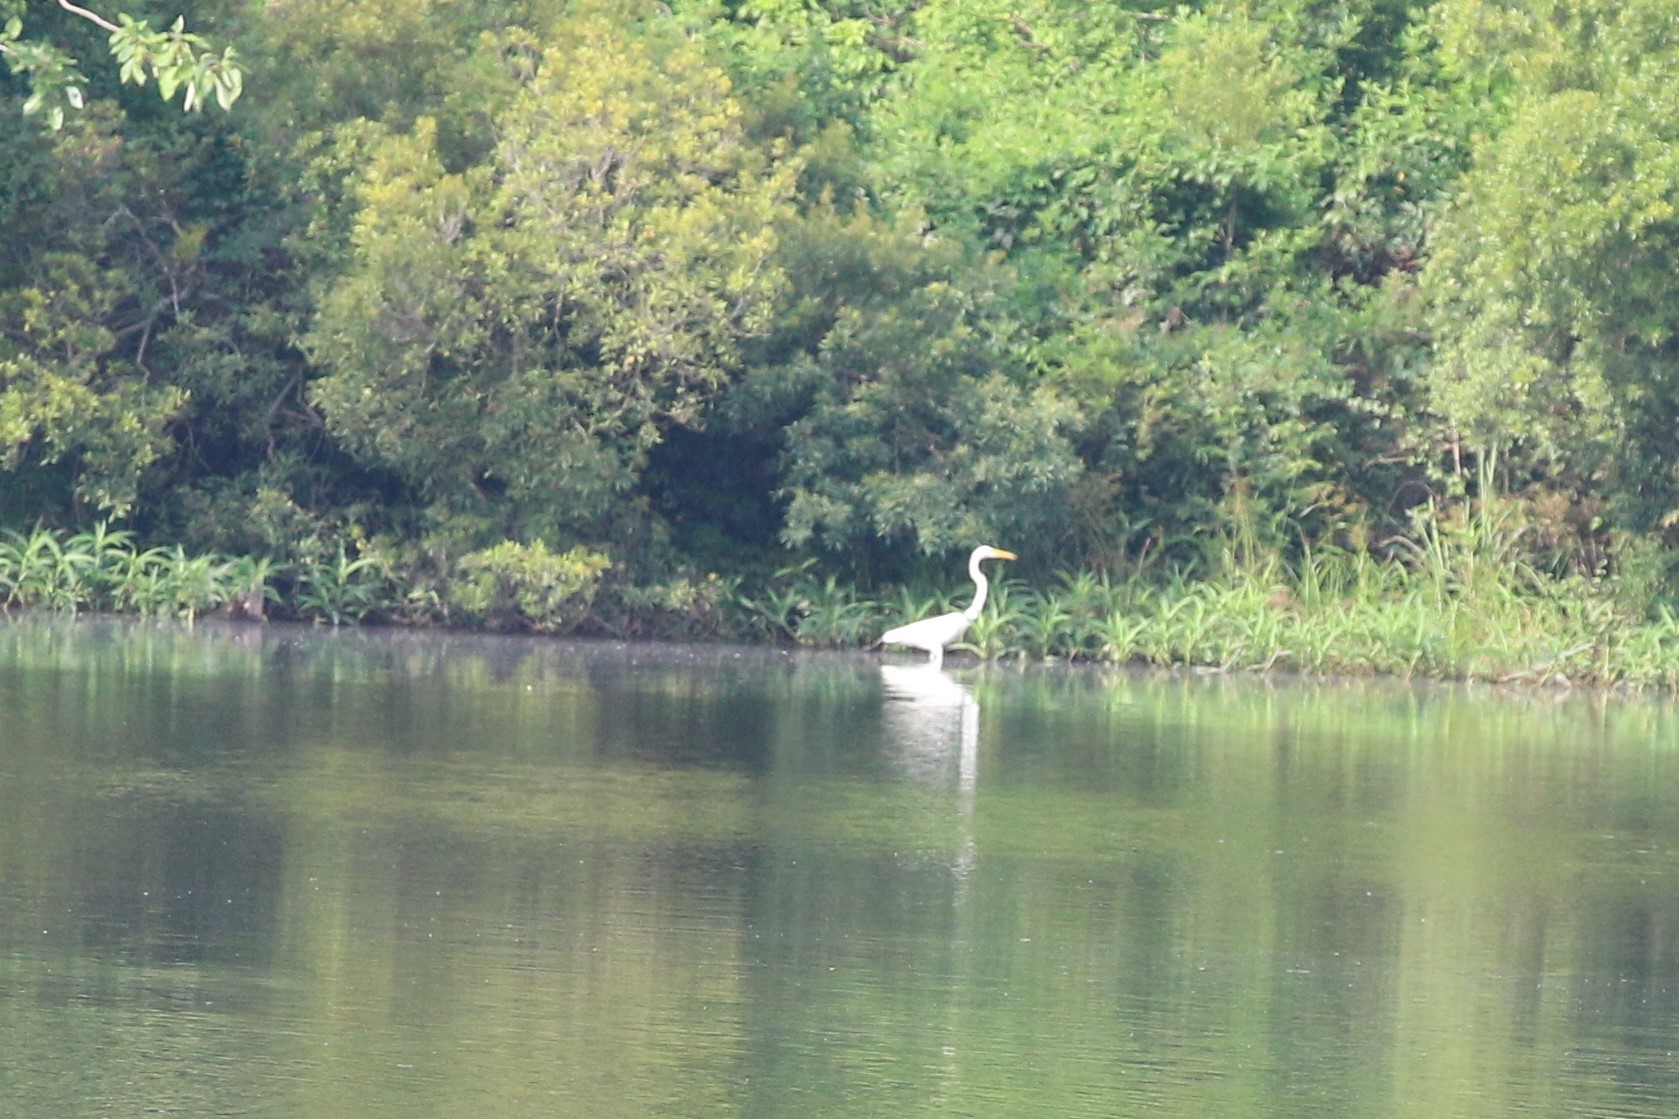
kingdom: Animalia
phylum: Chordata
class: Aves
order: Pelecaniformes
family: Ardeidae
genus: Ardea
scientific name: Ardea alba
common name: Great egret
